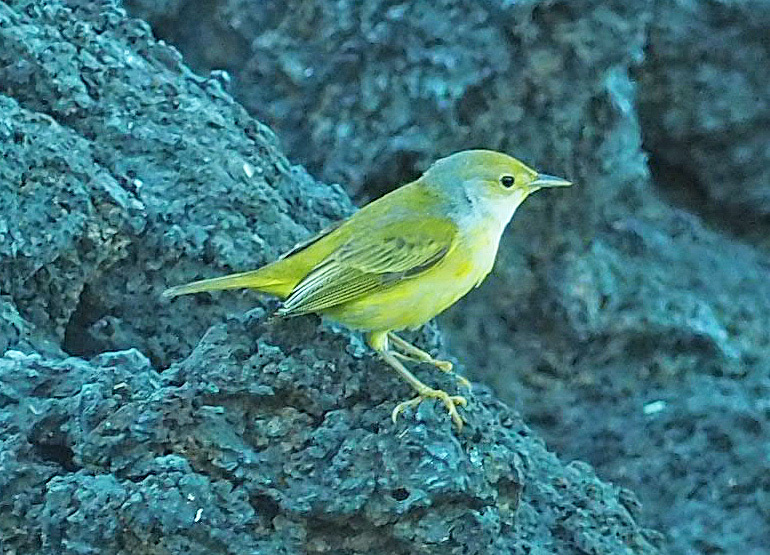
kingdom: Animalia
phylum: Chordata
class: Aves
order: Passeriformes
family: Parulidae
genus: Setophaga
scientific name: Setophaga petechia
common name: Yellow warbler
